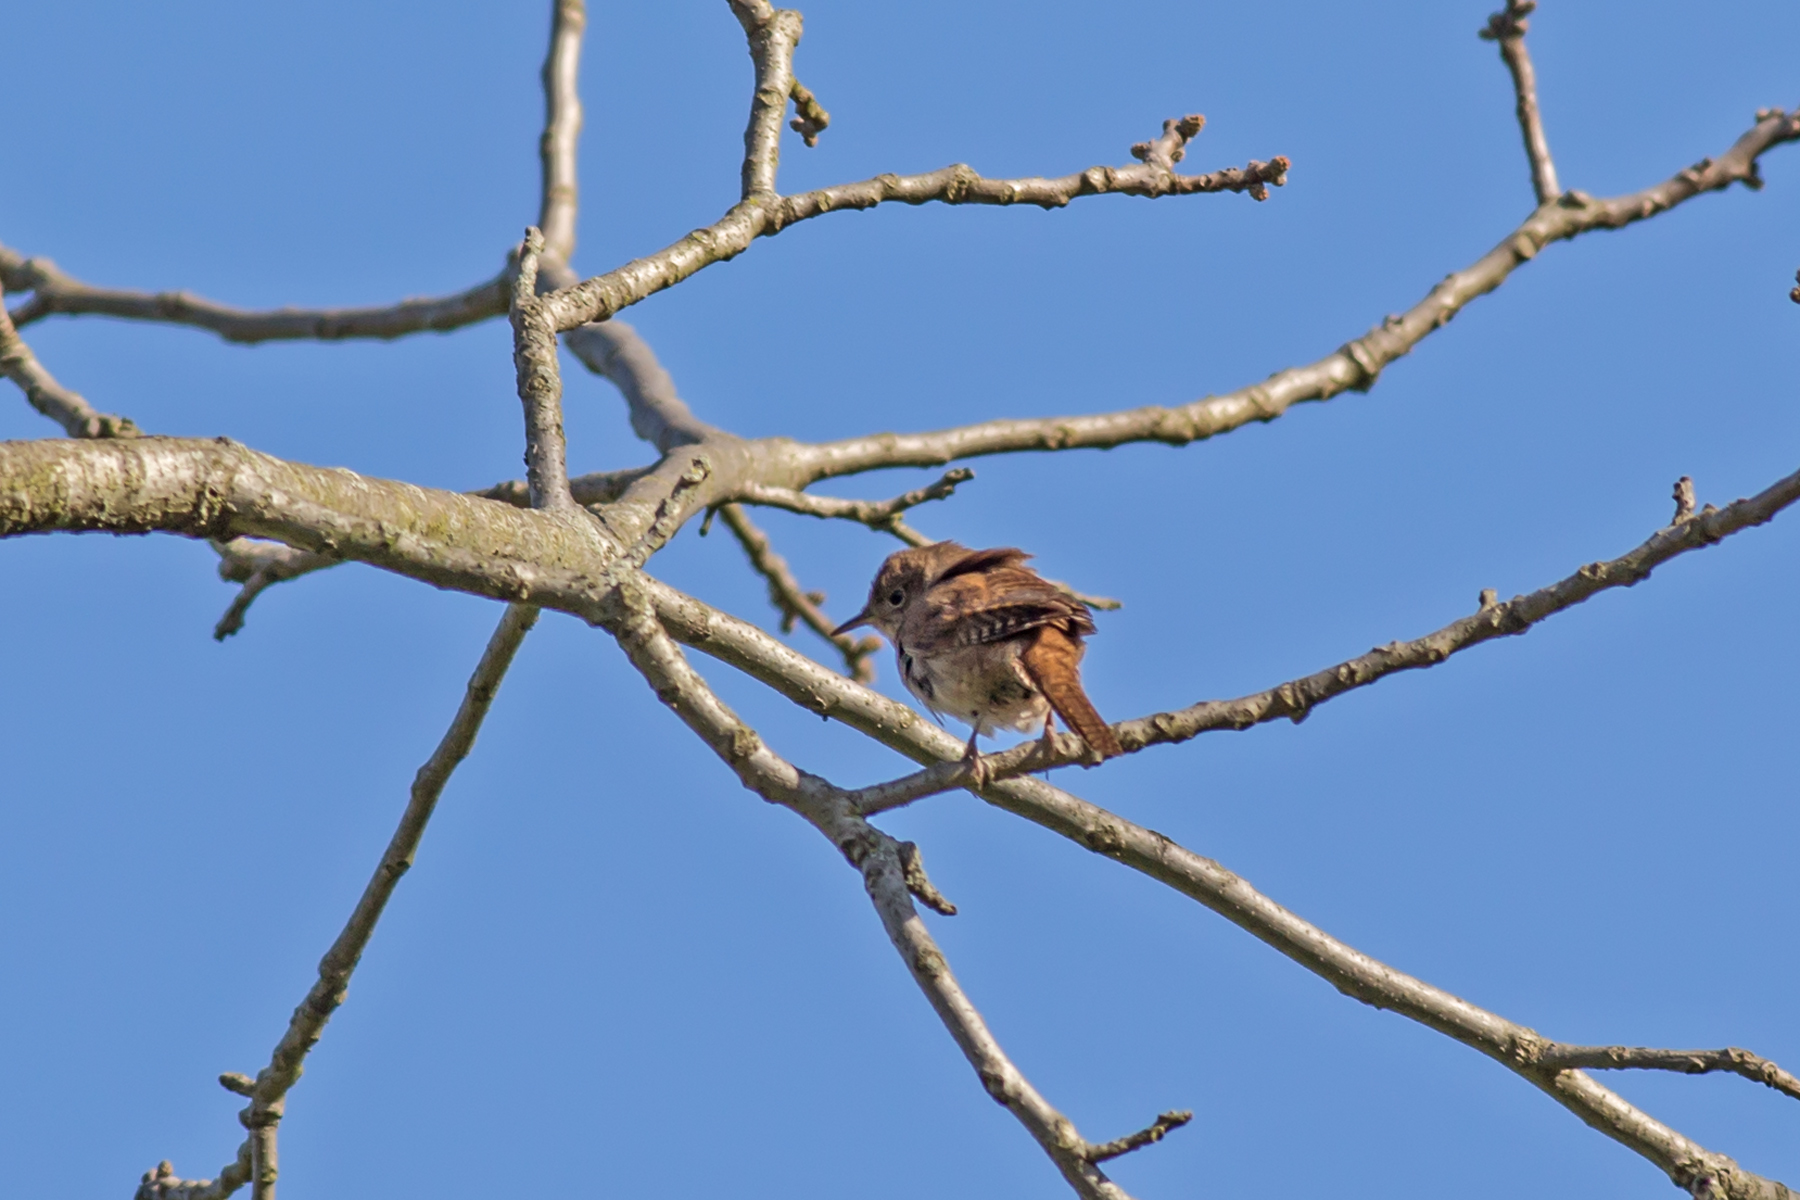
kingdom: Animalia
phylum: Chordata
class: Aves
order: Passeriformes
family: Troglodytidae
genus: Troglodytes
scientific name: Troglodytes aedon
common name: House wren
